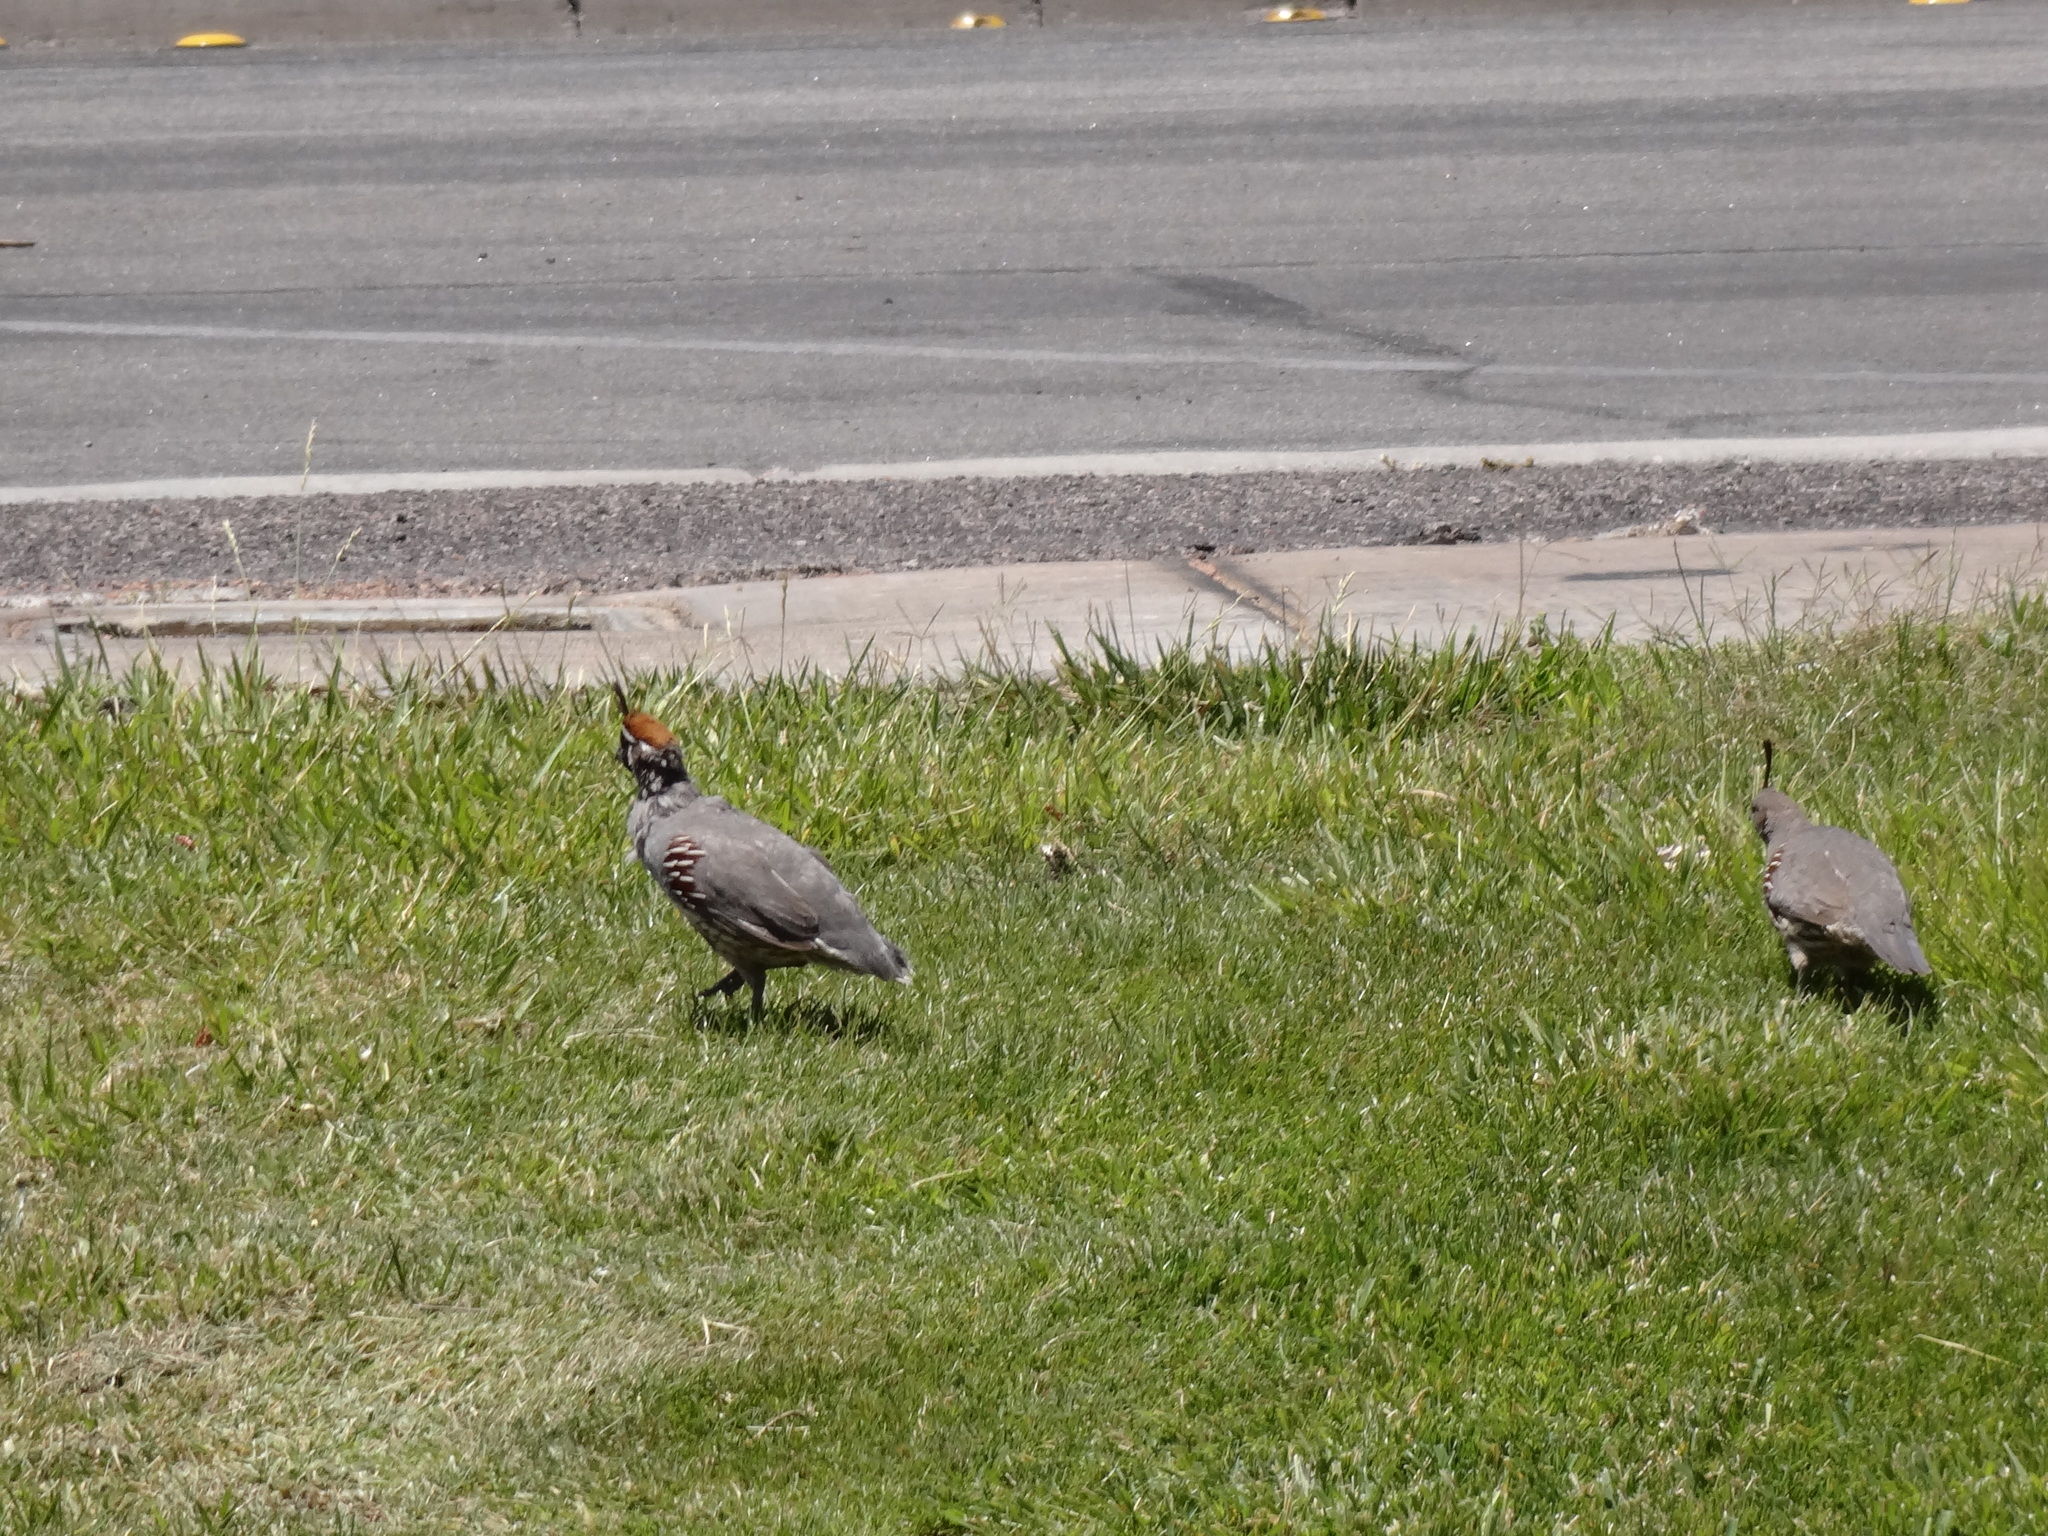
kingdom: Animalia
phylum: Chordata
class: Aves
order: Galliformes
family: Odontophoridae
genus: Callipepla
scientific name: Callipepla gambelii
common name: Gambel's quail
